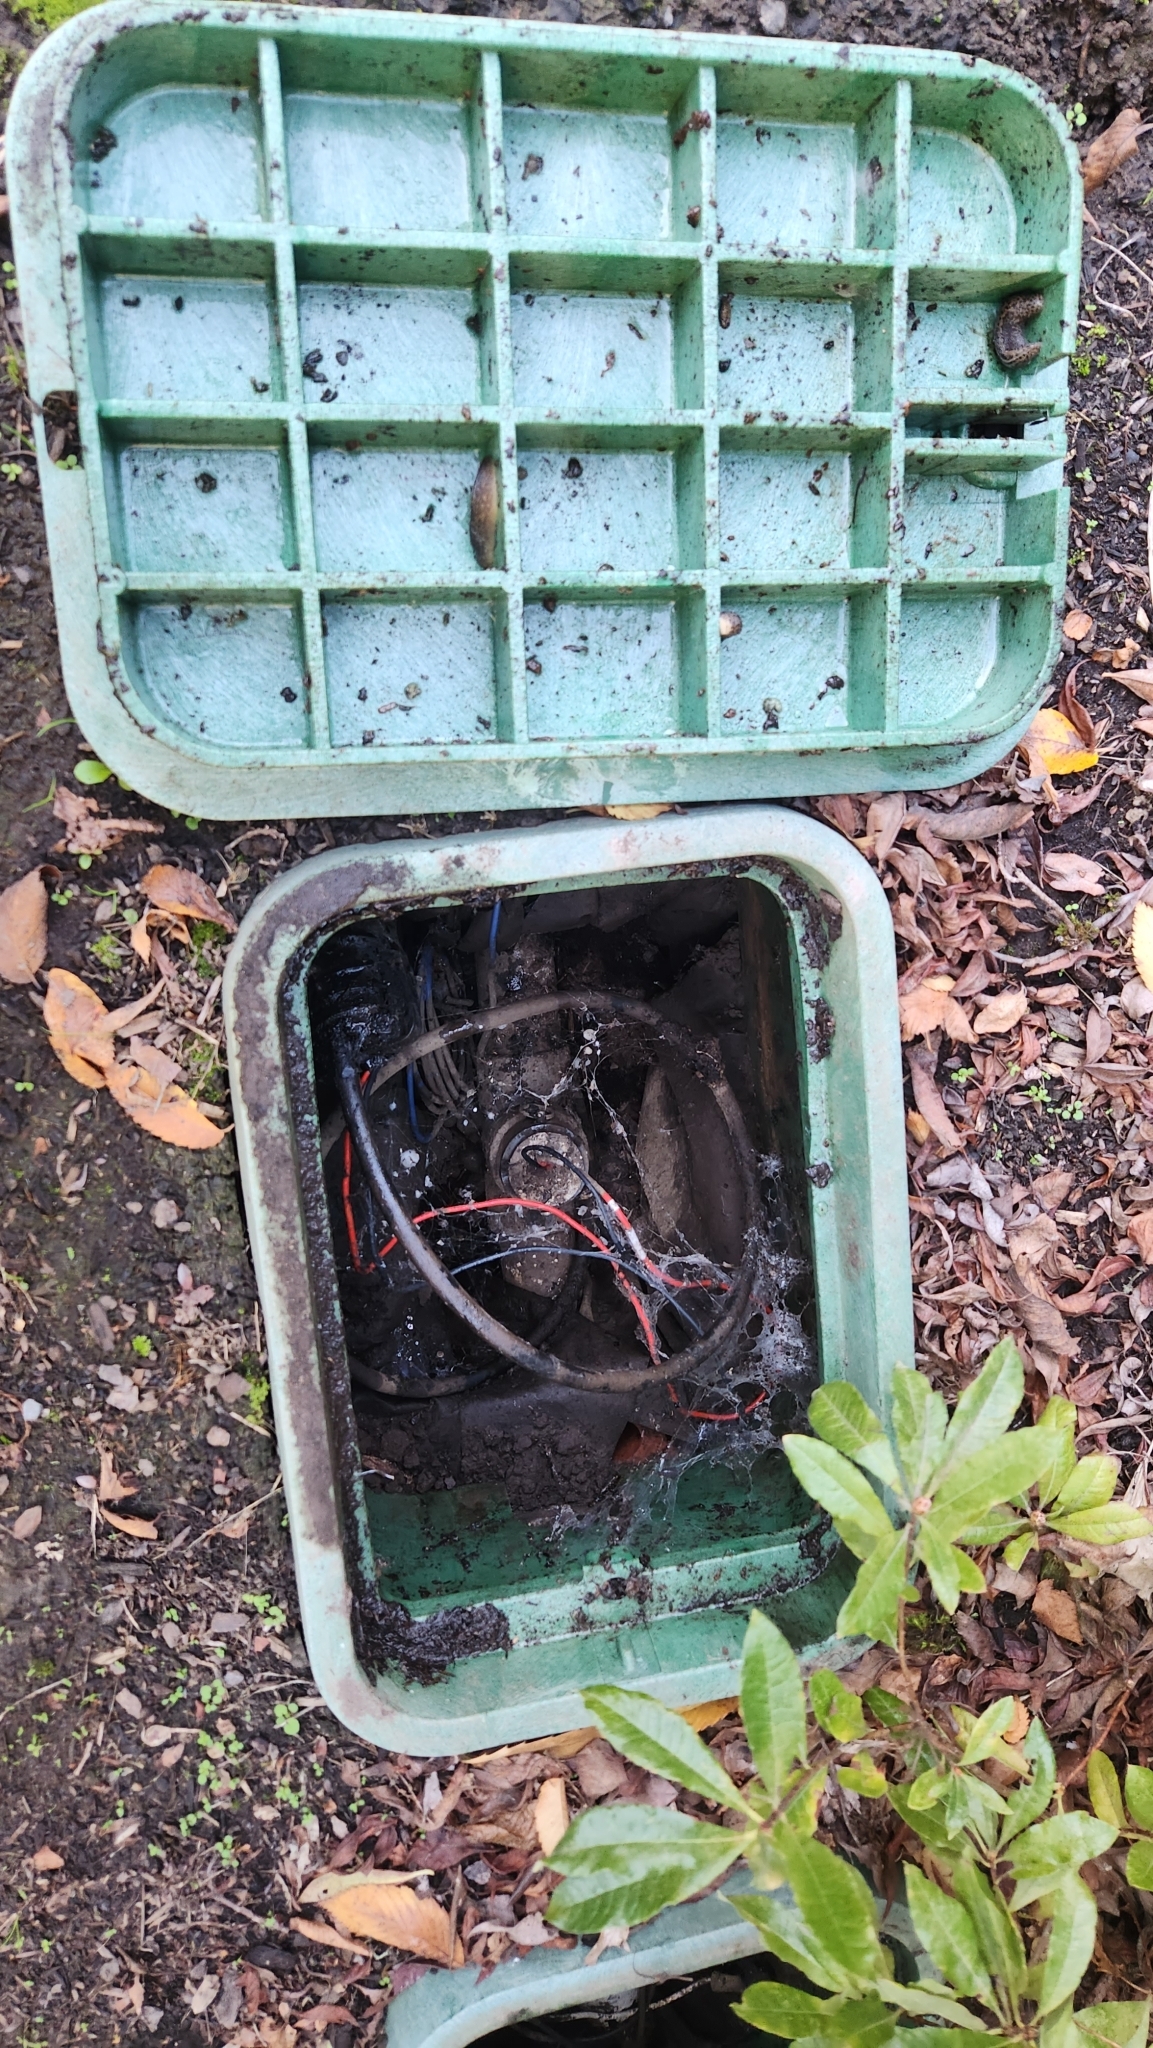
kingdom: Animalia
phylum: Mollusca
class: Gastropoda
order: Stylommatophora
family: Limacidae
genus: Limacus
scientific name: Limacus flavus
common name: Yellow gardenslug
